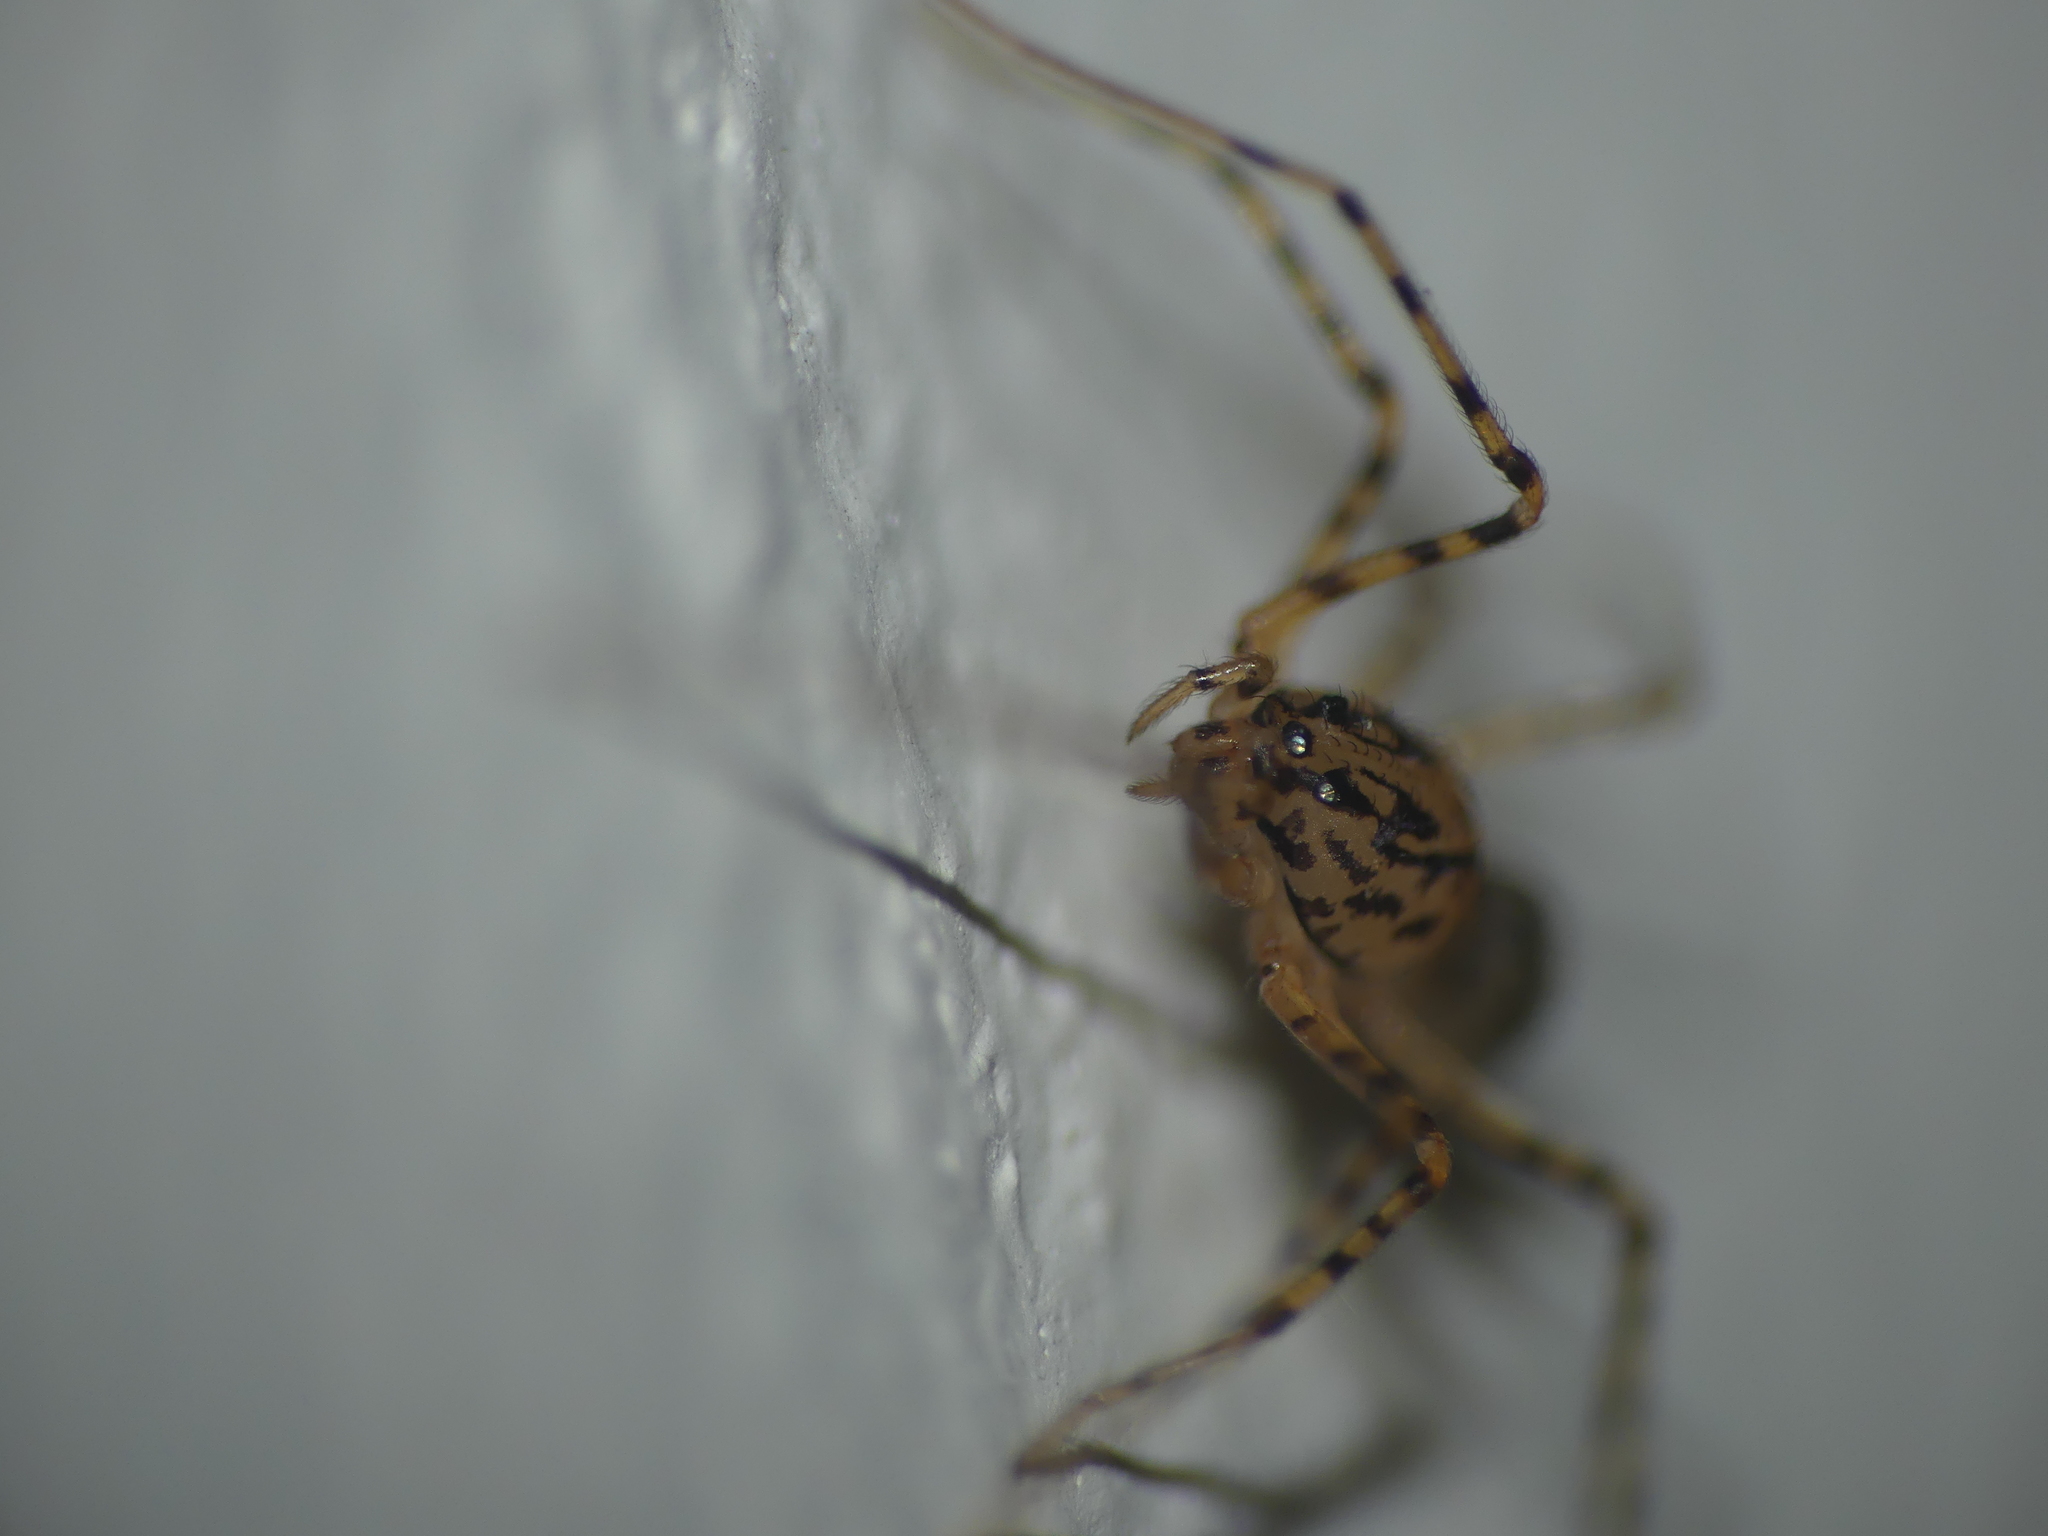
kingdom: Animalia
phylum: Arthropoda
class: Arachnida
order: Araneae
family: Scytodidae
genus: Scytodes
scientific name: Scytodes thoracica
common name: Spitting spider
